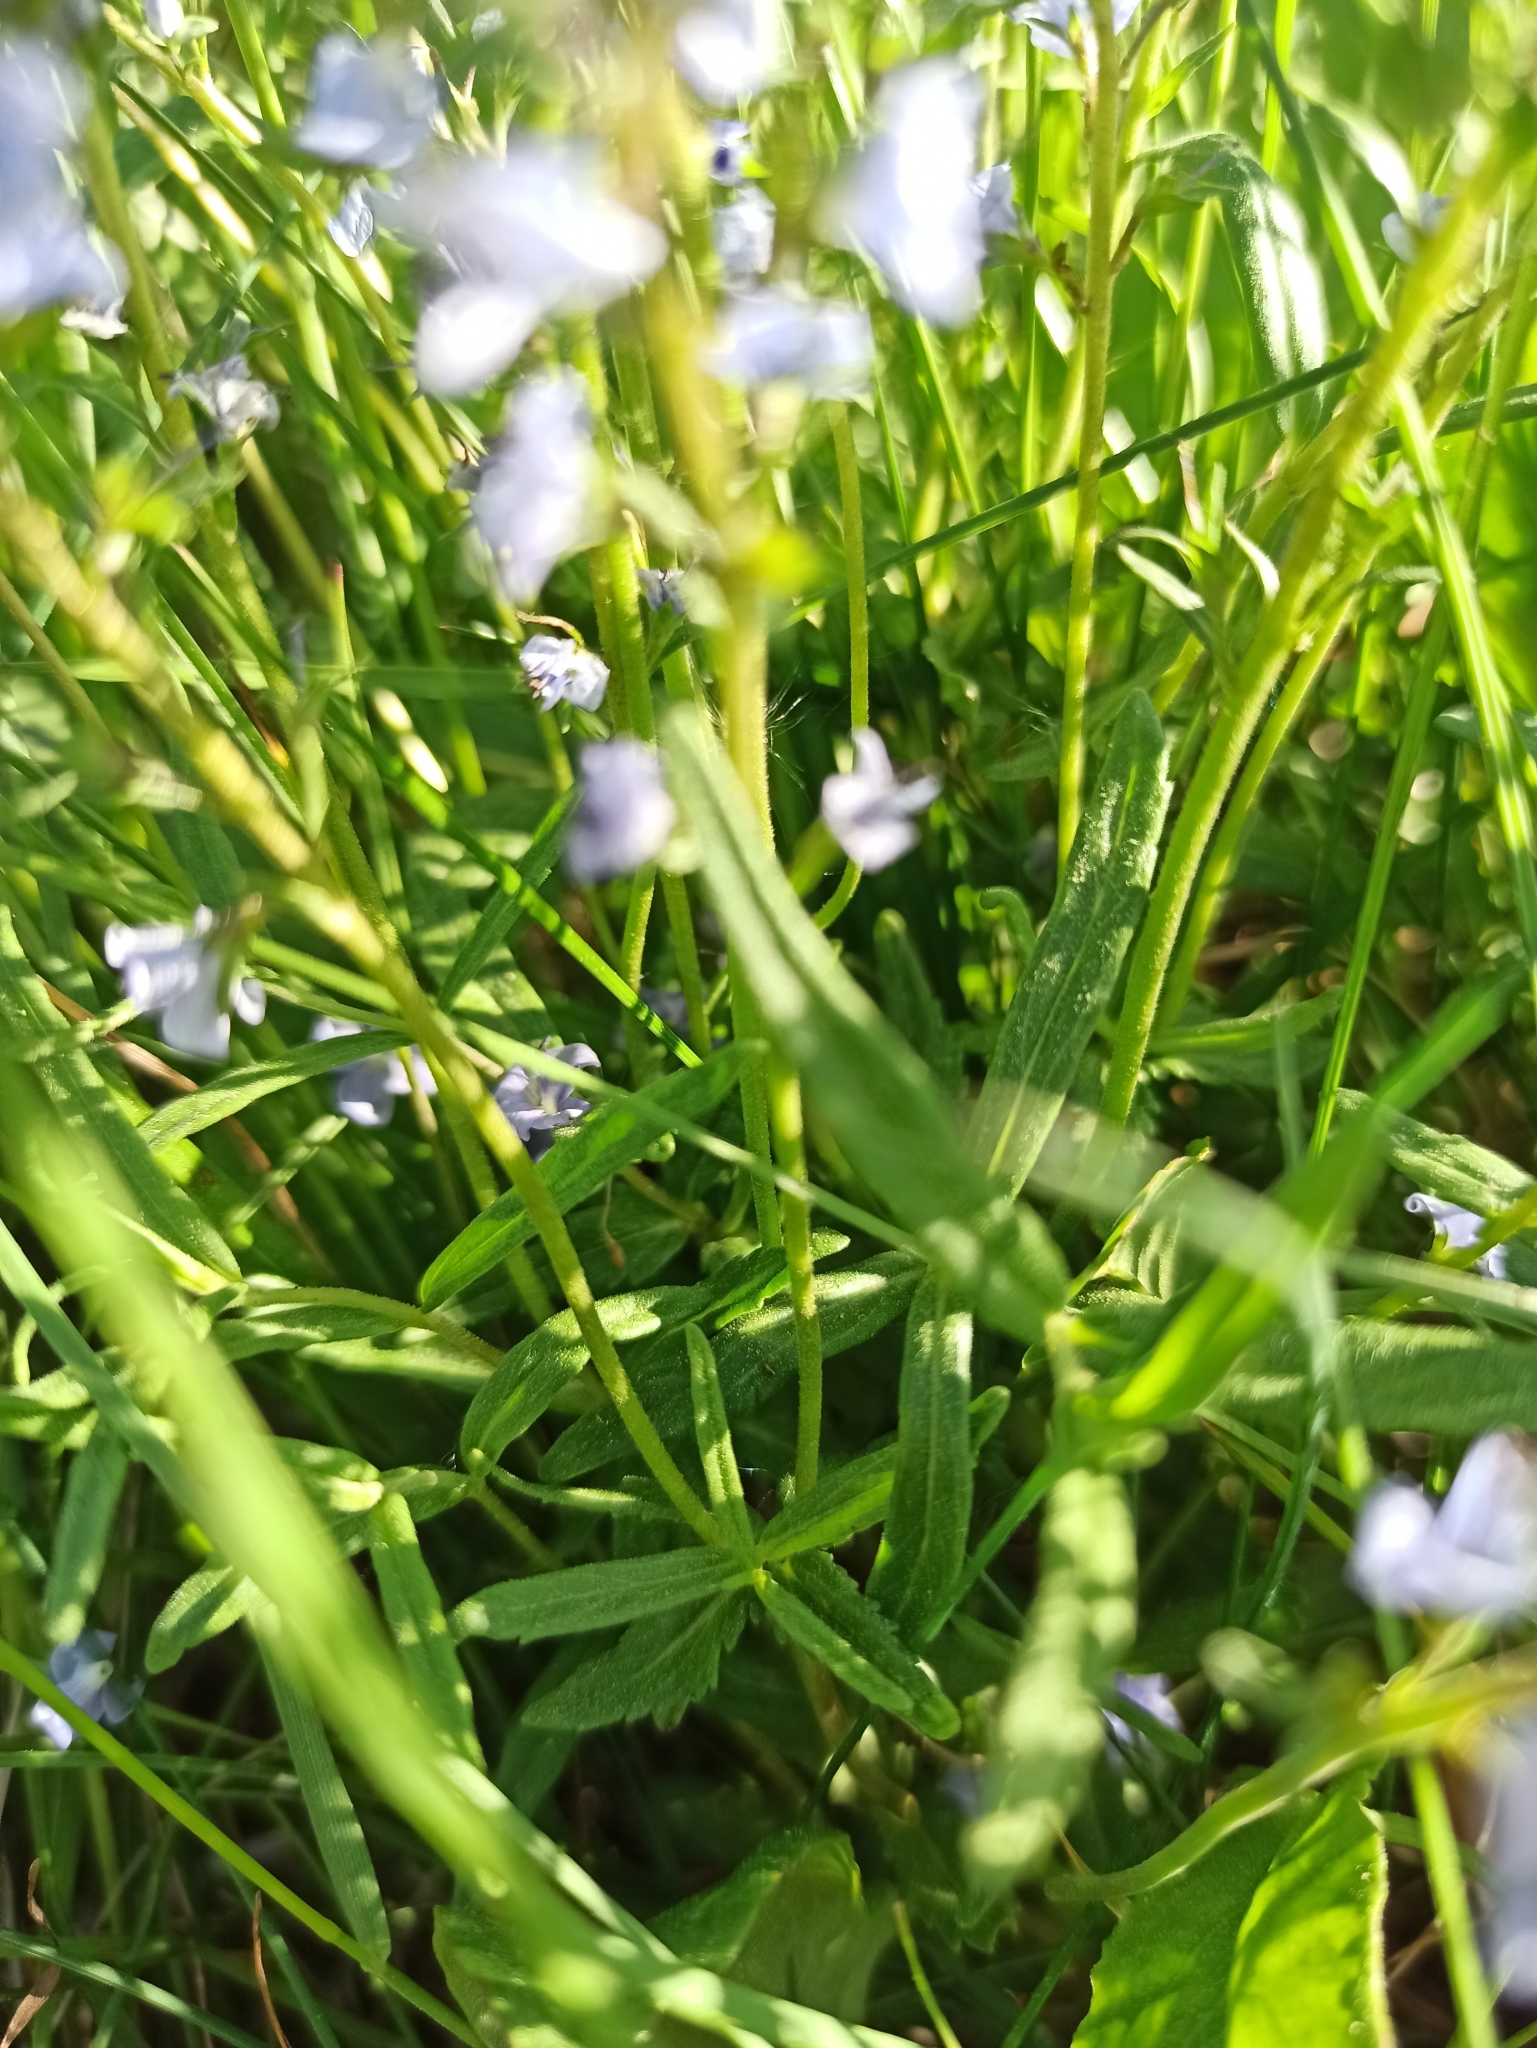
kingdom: Plantae
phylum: Tracheophyta
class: Magnoliopsida
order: Lamiales
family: Plantaginaceae
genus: Veronica
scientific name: Veronica prostrata
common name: Prostrate speedwell
